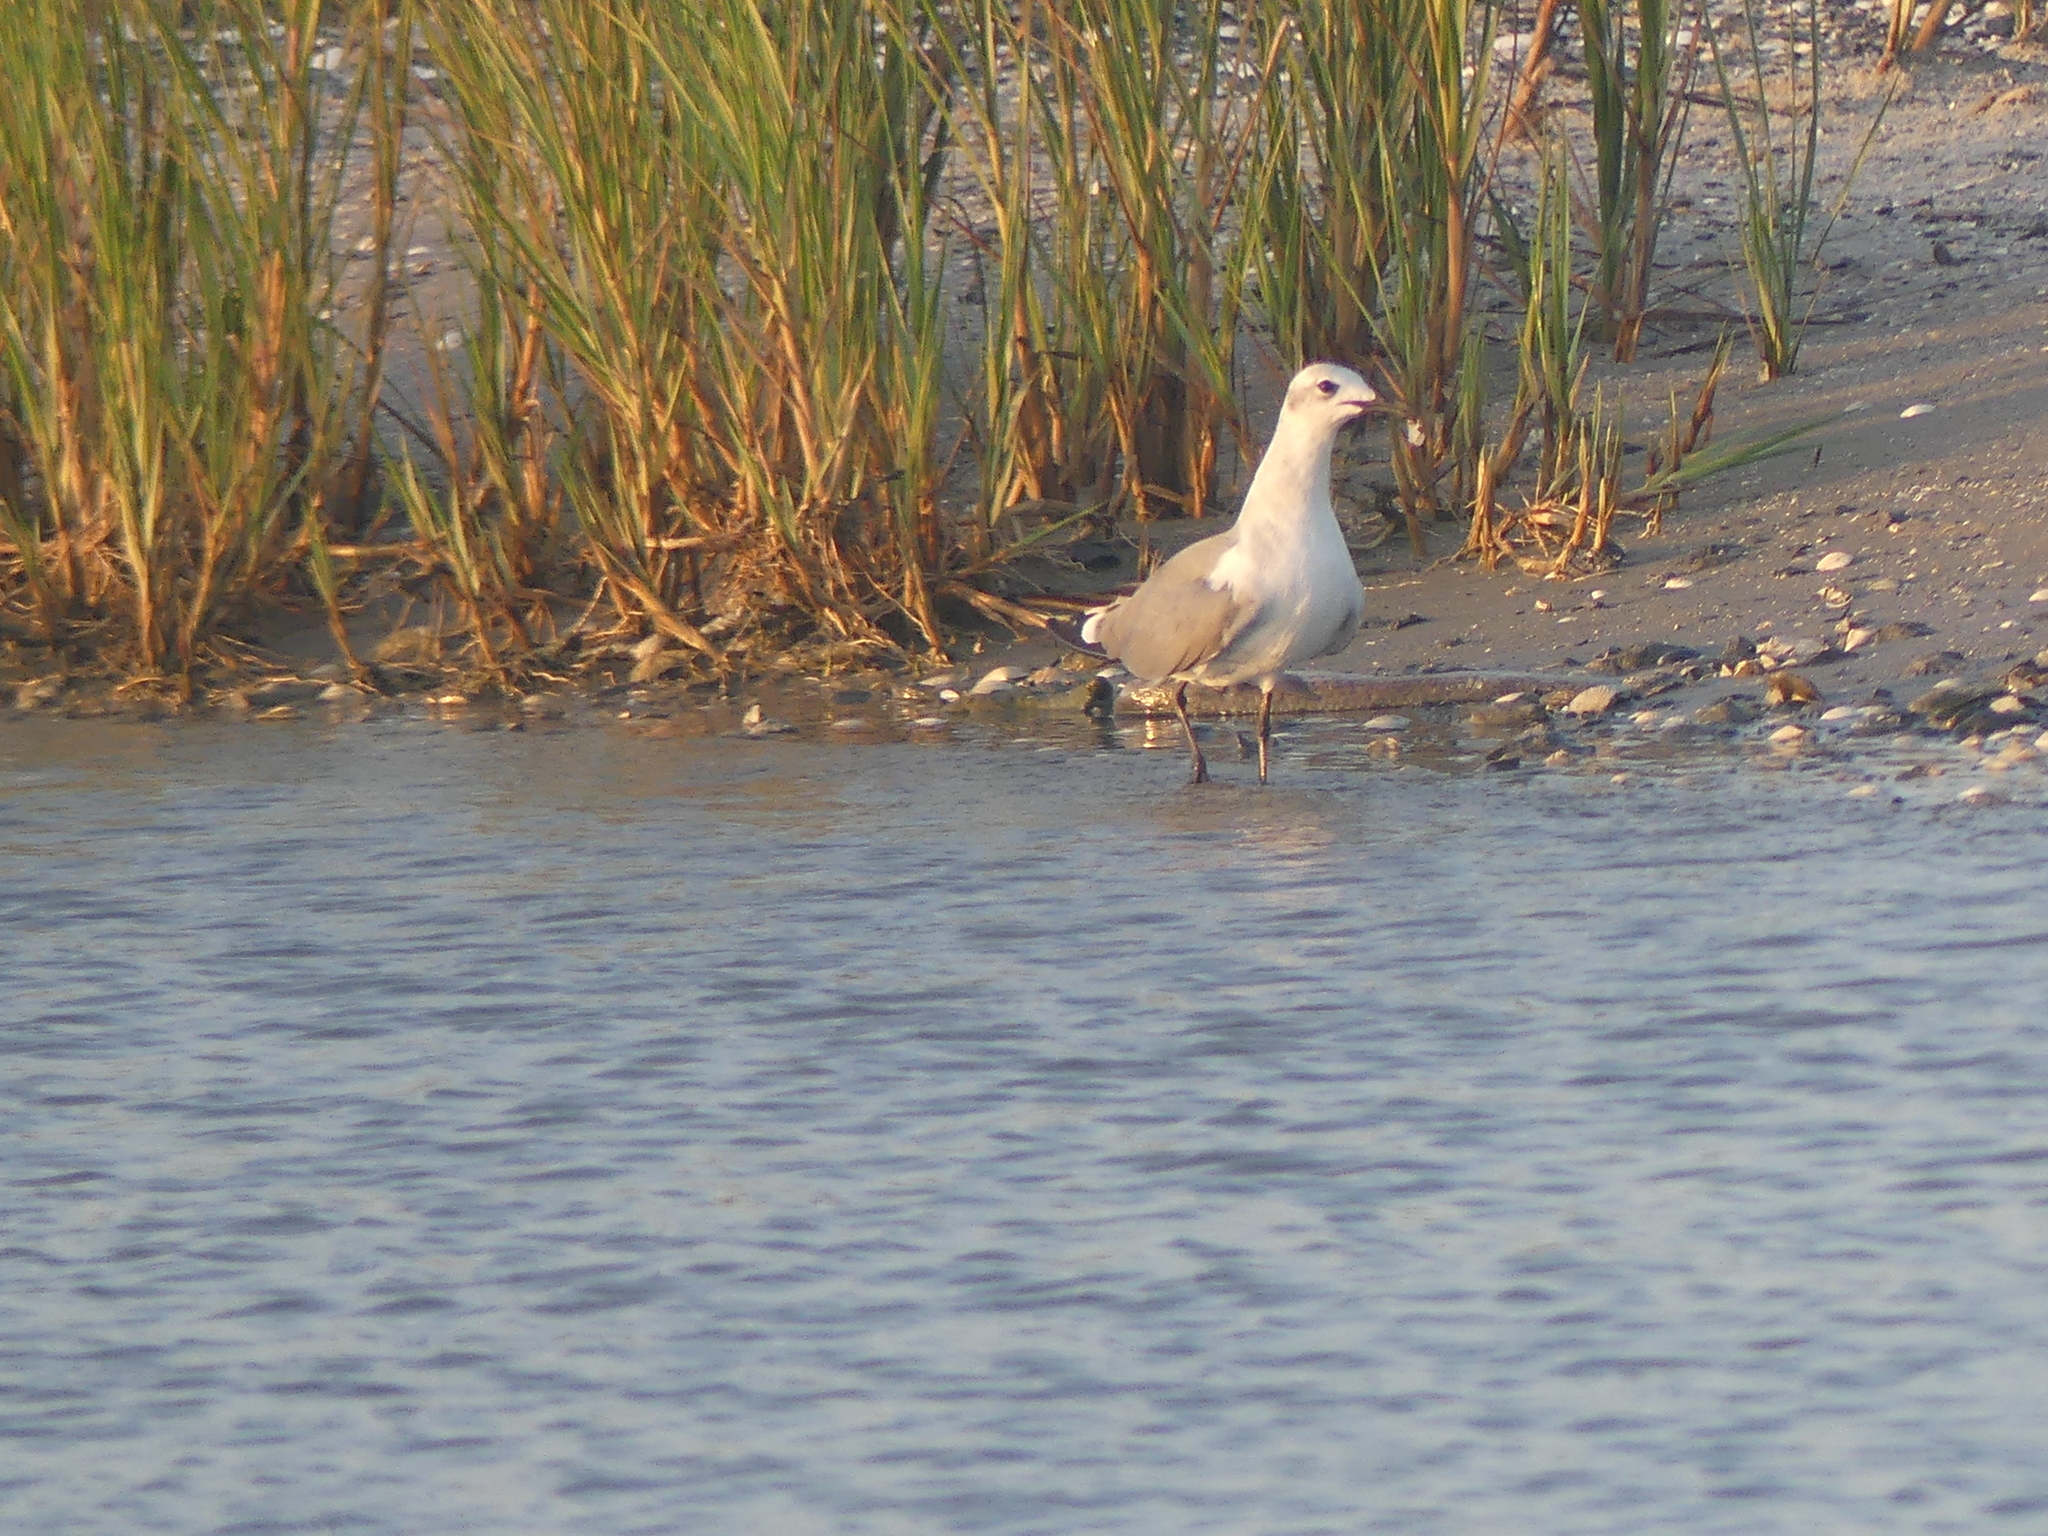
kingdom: Animalia
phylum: Chordata
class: Aves
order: Charadriiformes
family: Laridae
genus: Leucophaeus
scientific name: Leucophaeus atricilla
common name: Laughing gull
